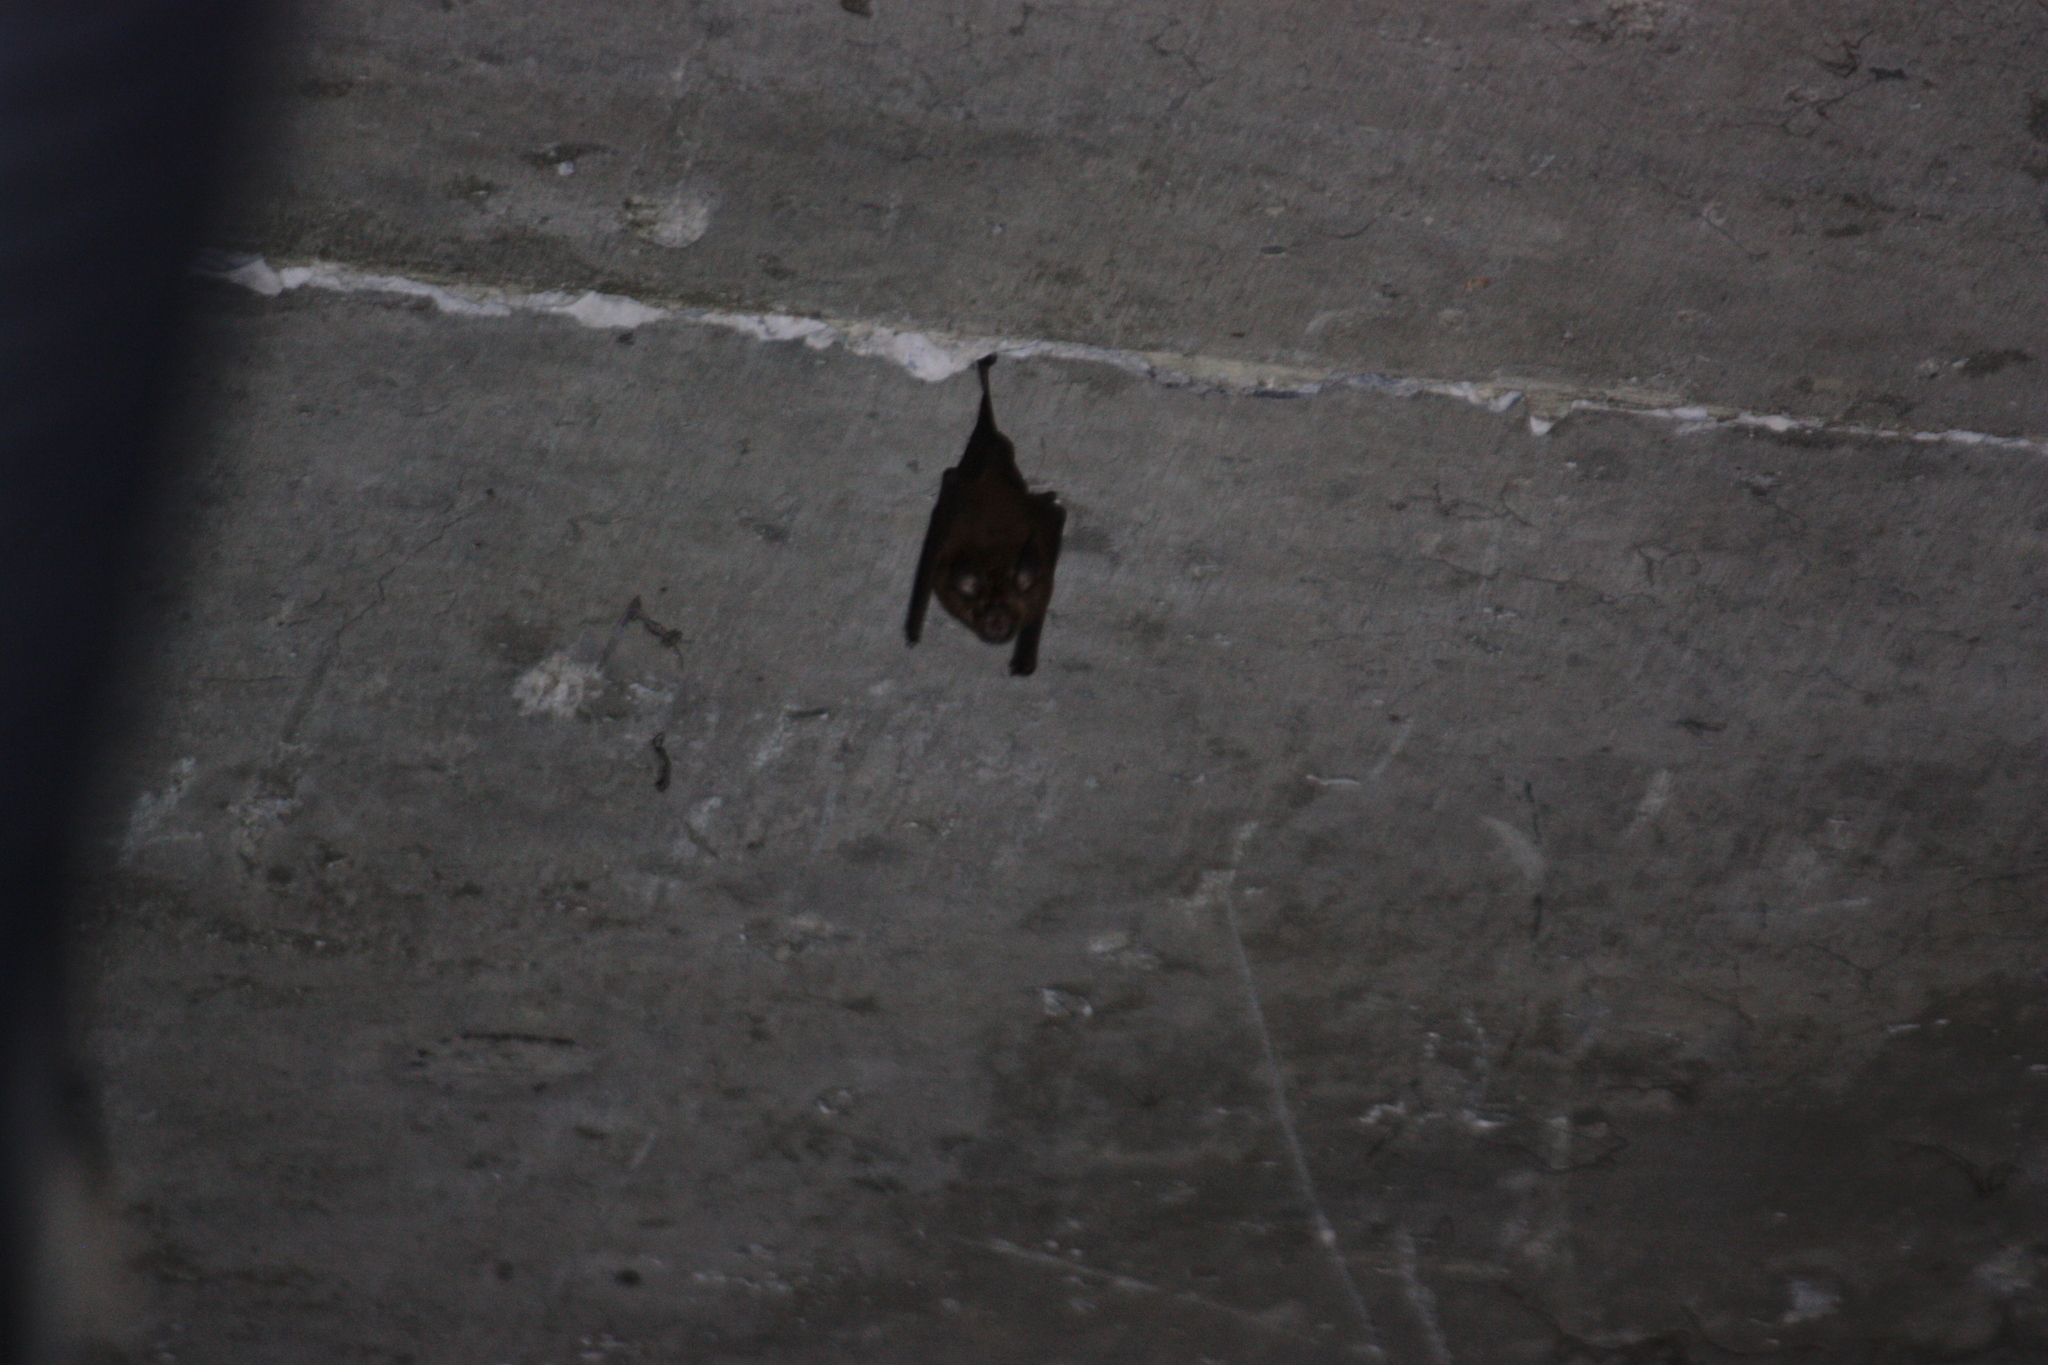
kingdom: Animalia
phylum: Chordata
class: Mammalia
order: Chiroptera
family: Rhinolophidae
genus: Rhinolophus
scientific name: Rhinolophus monoceros
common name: Formosan lesser horseshoe bat
